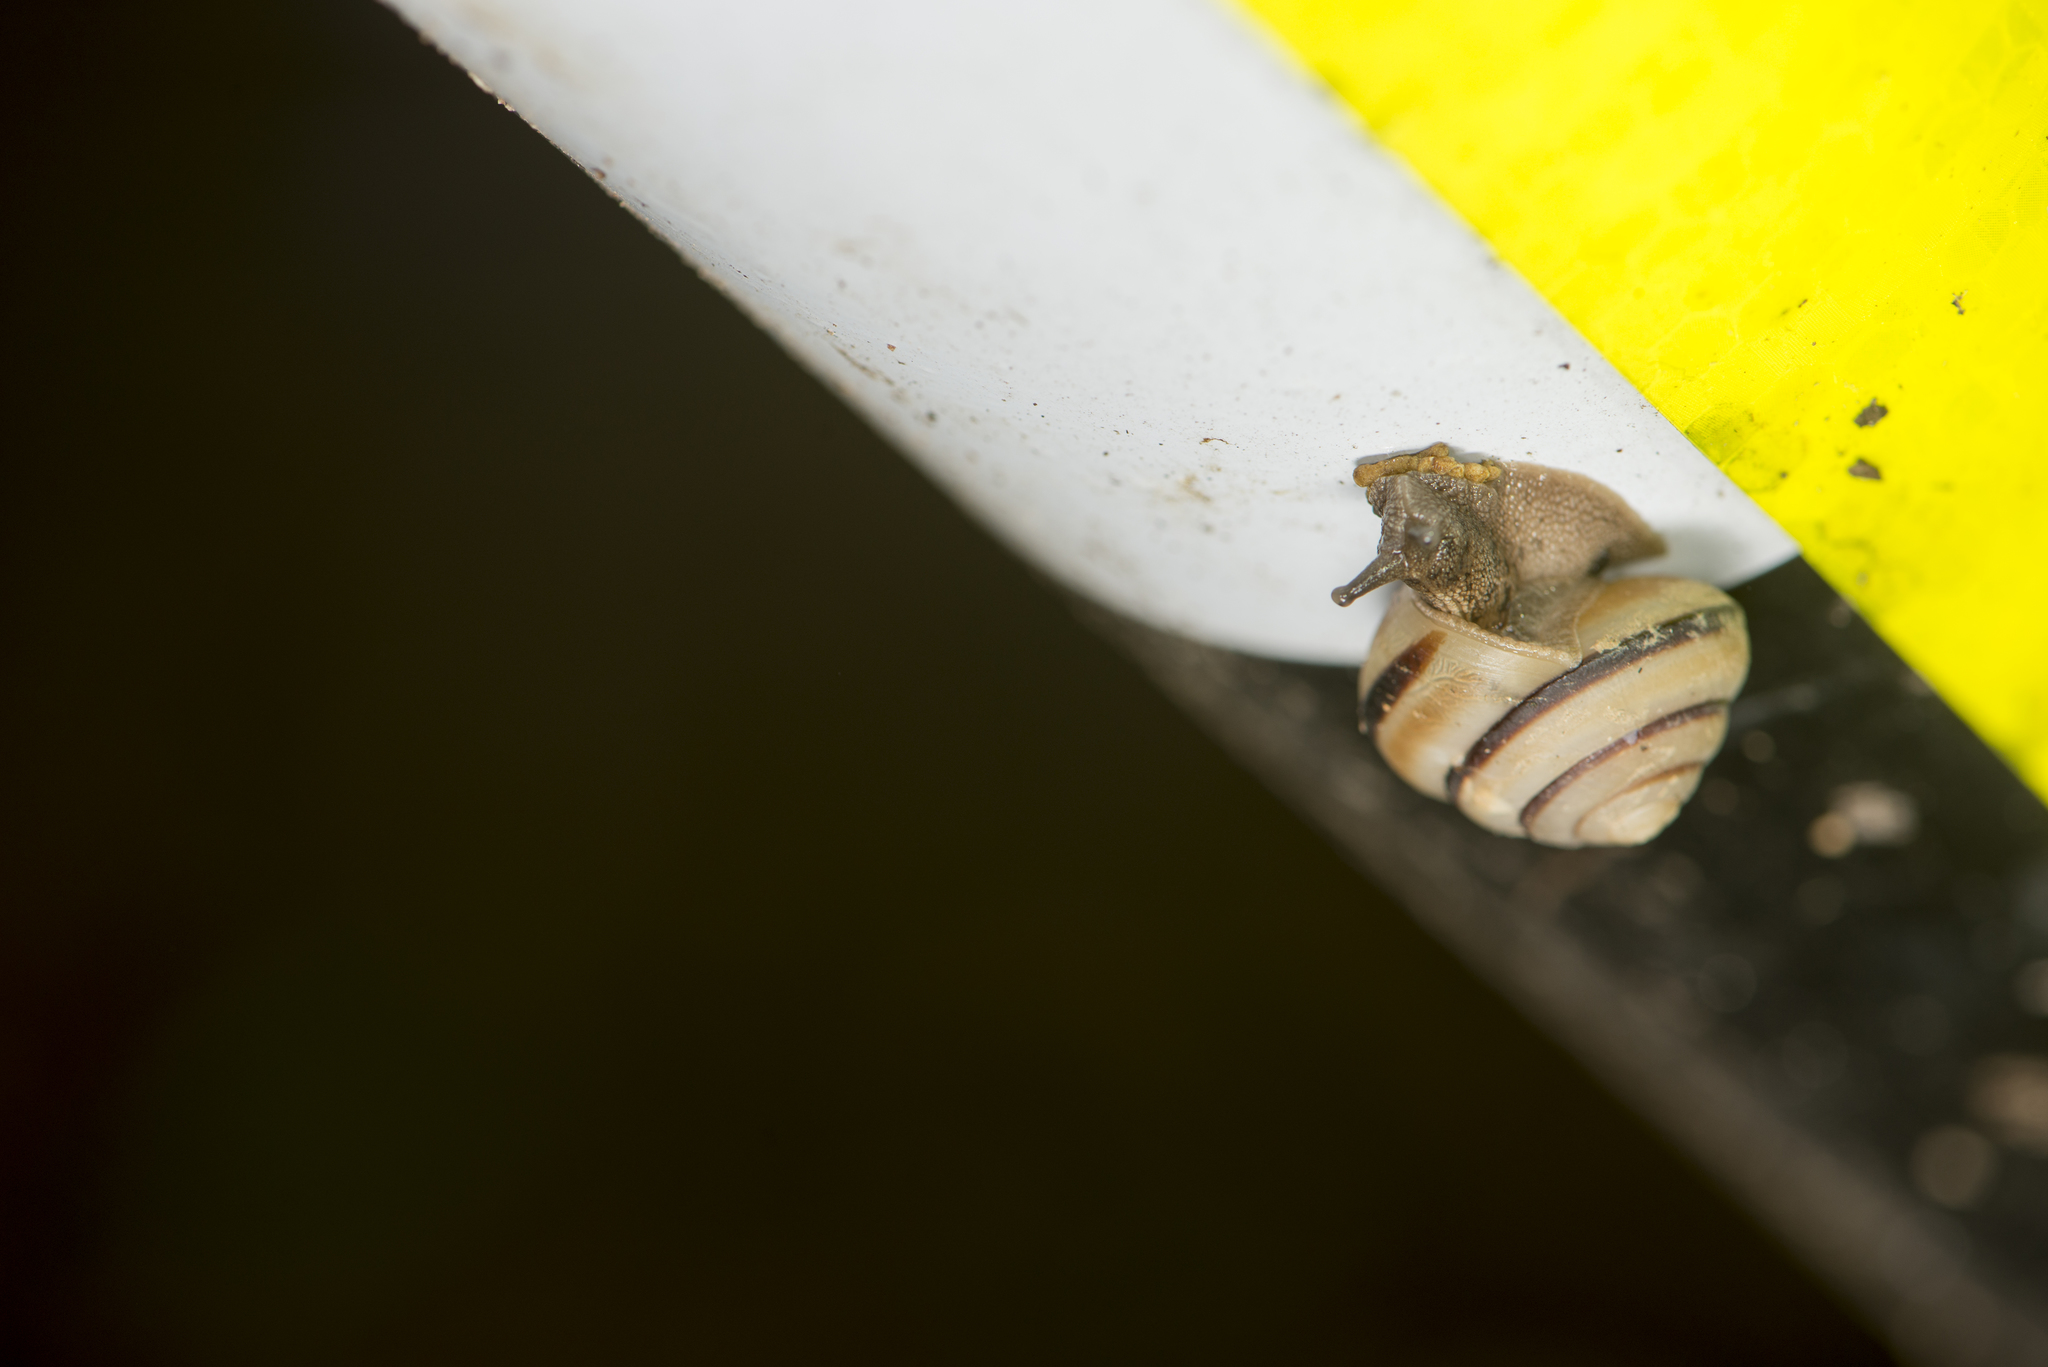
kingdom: Animalia
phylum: Mollusca
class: Gastropoda
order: Stylommatophora
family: Camaenidae
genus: Satsuma
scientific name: Satsuma succincta
